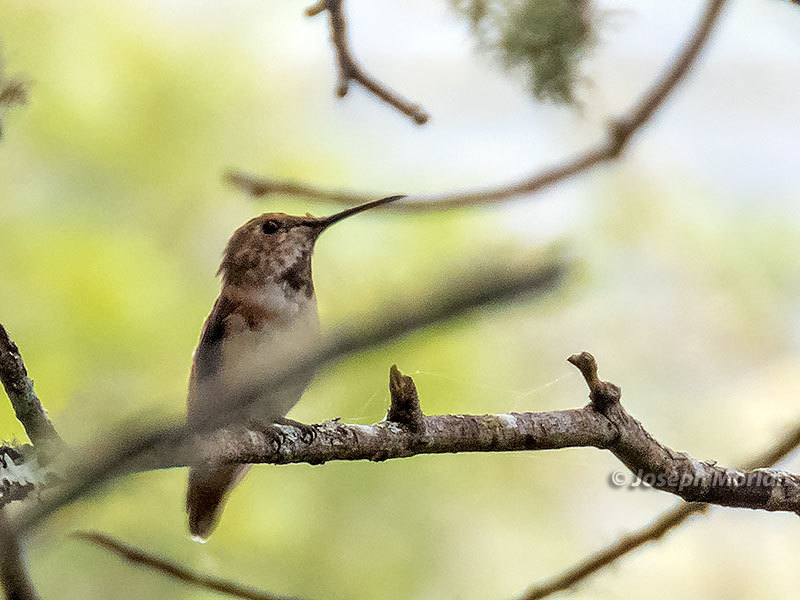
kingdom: Animalia
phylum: Chordata
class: Aves
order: Apodiformes
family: Trochilidae
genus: Selasphorus
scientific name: Selasphorus sasin
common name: Allen's hummingbird
